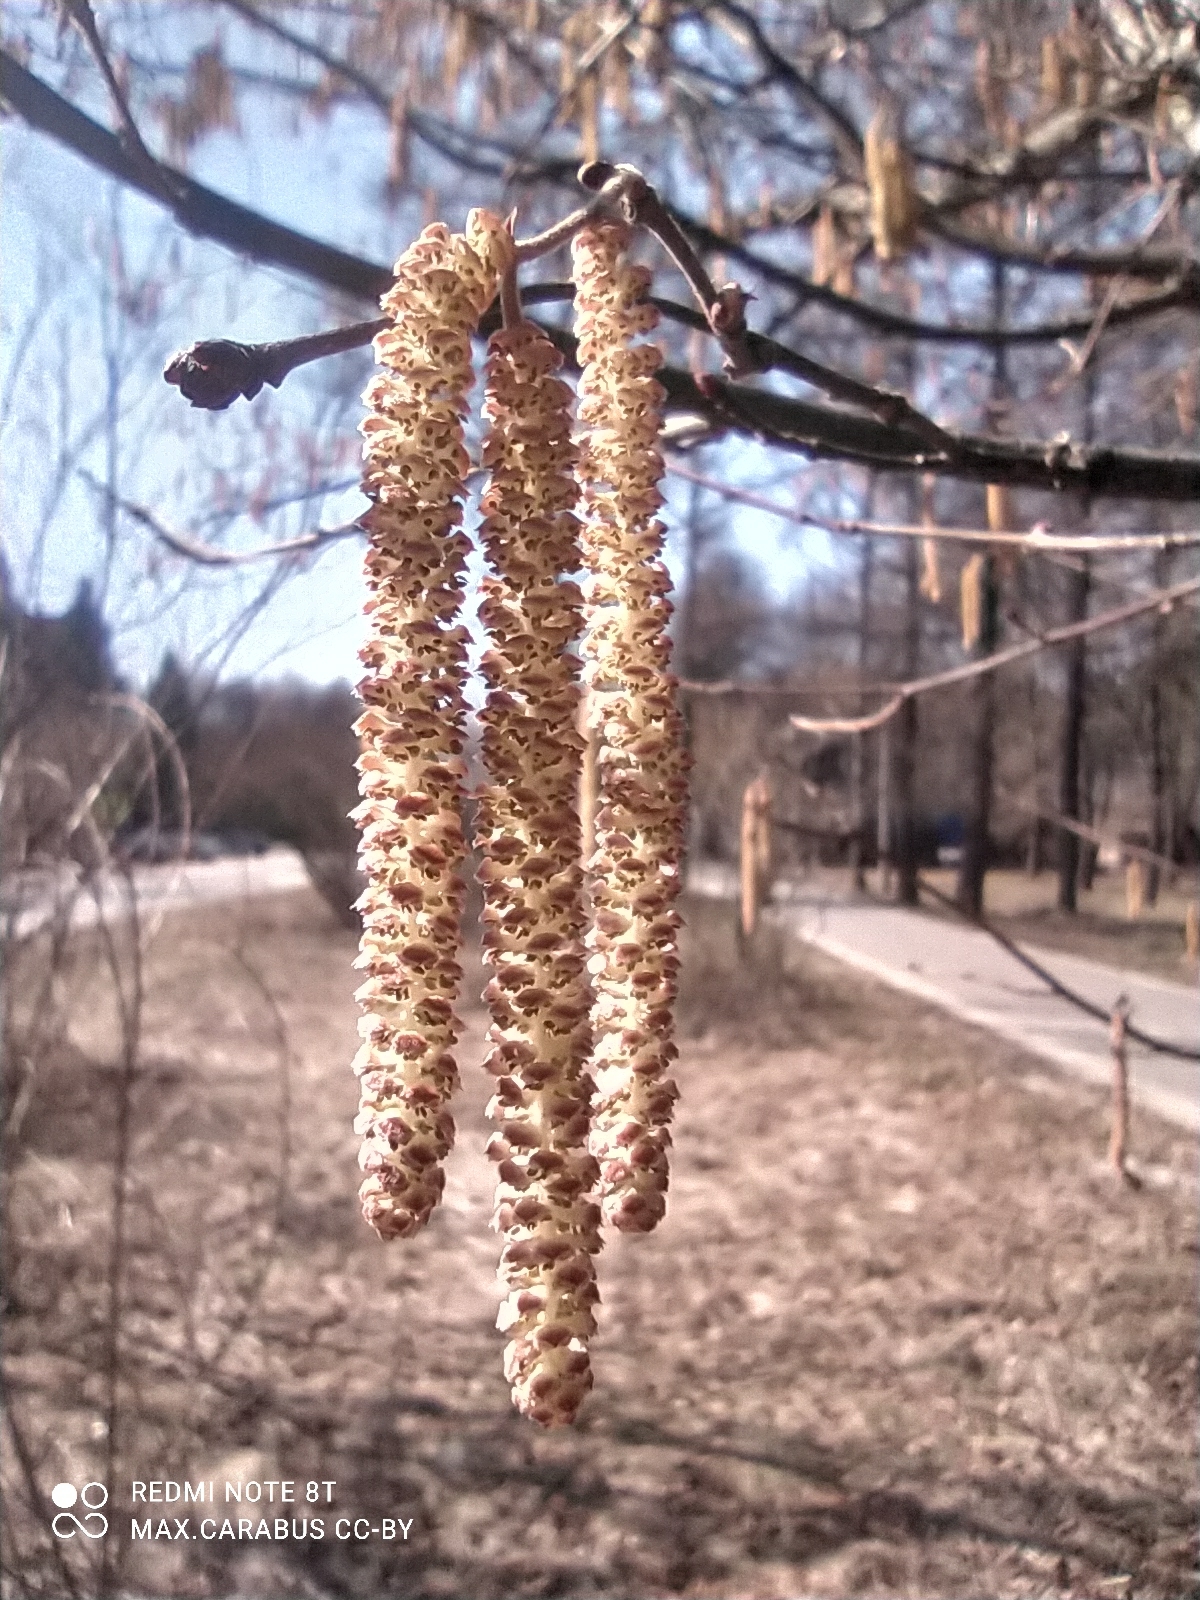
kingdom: Plantae
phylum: Tracheophyta
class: Magnoliopsida
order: Fagales
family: Betulaceae
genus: Corylus
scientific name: Corylus avellana
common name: European hazel
